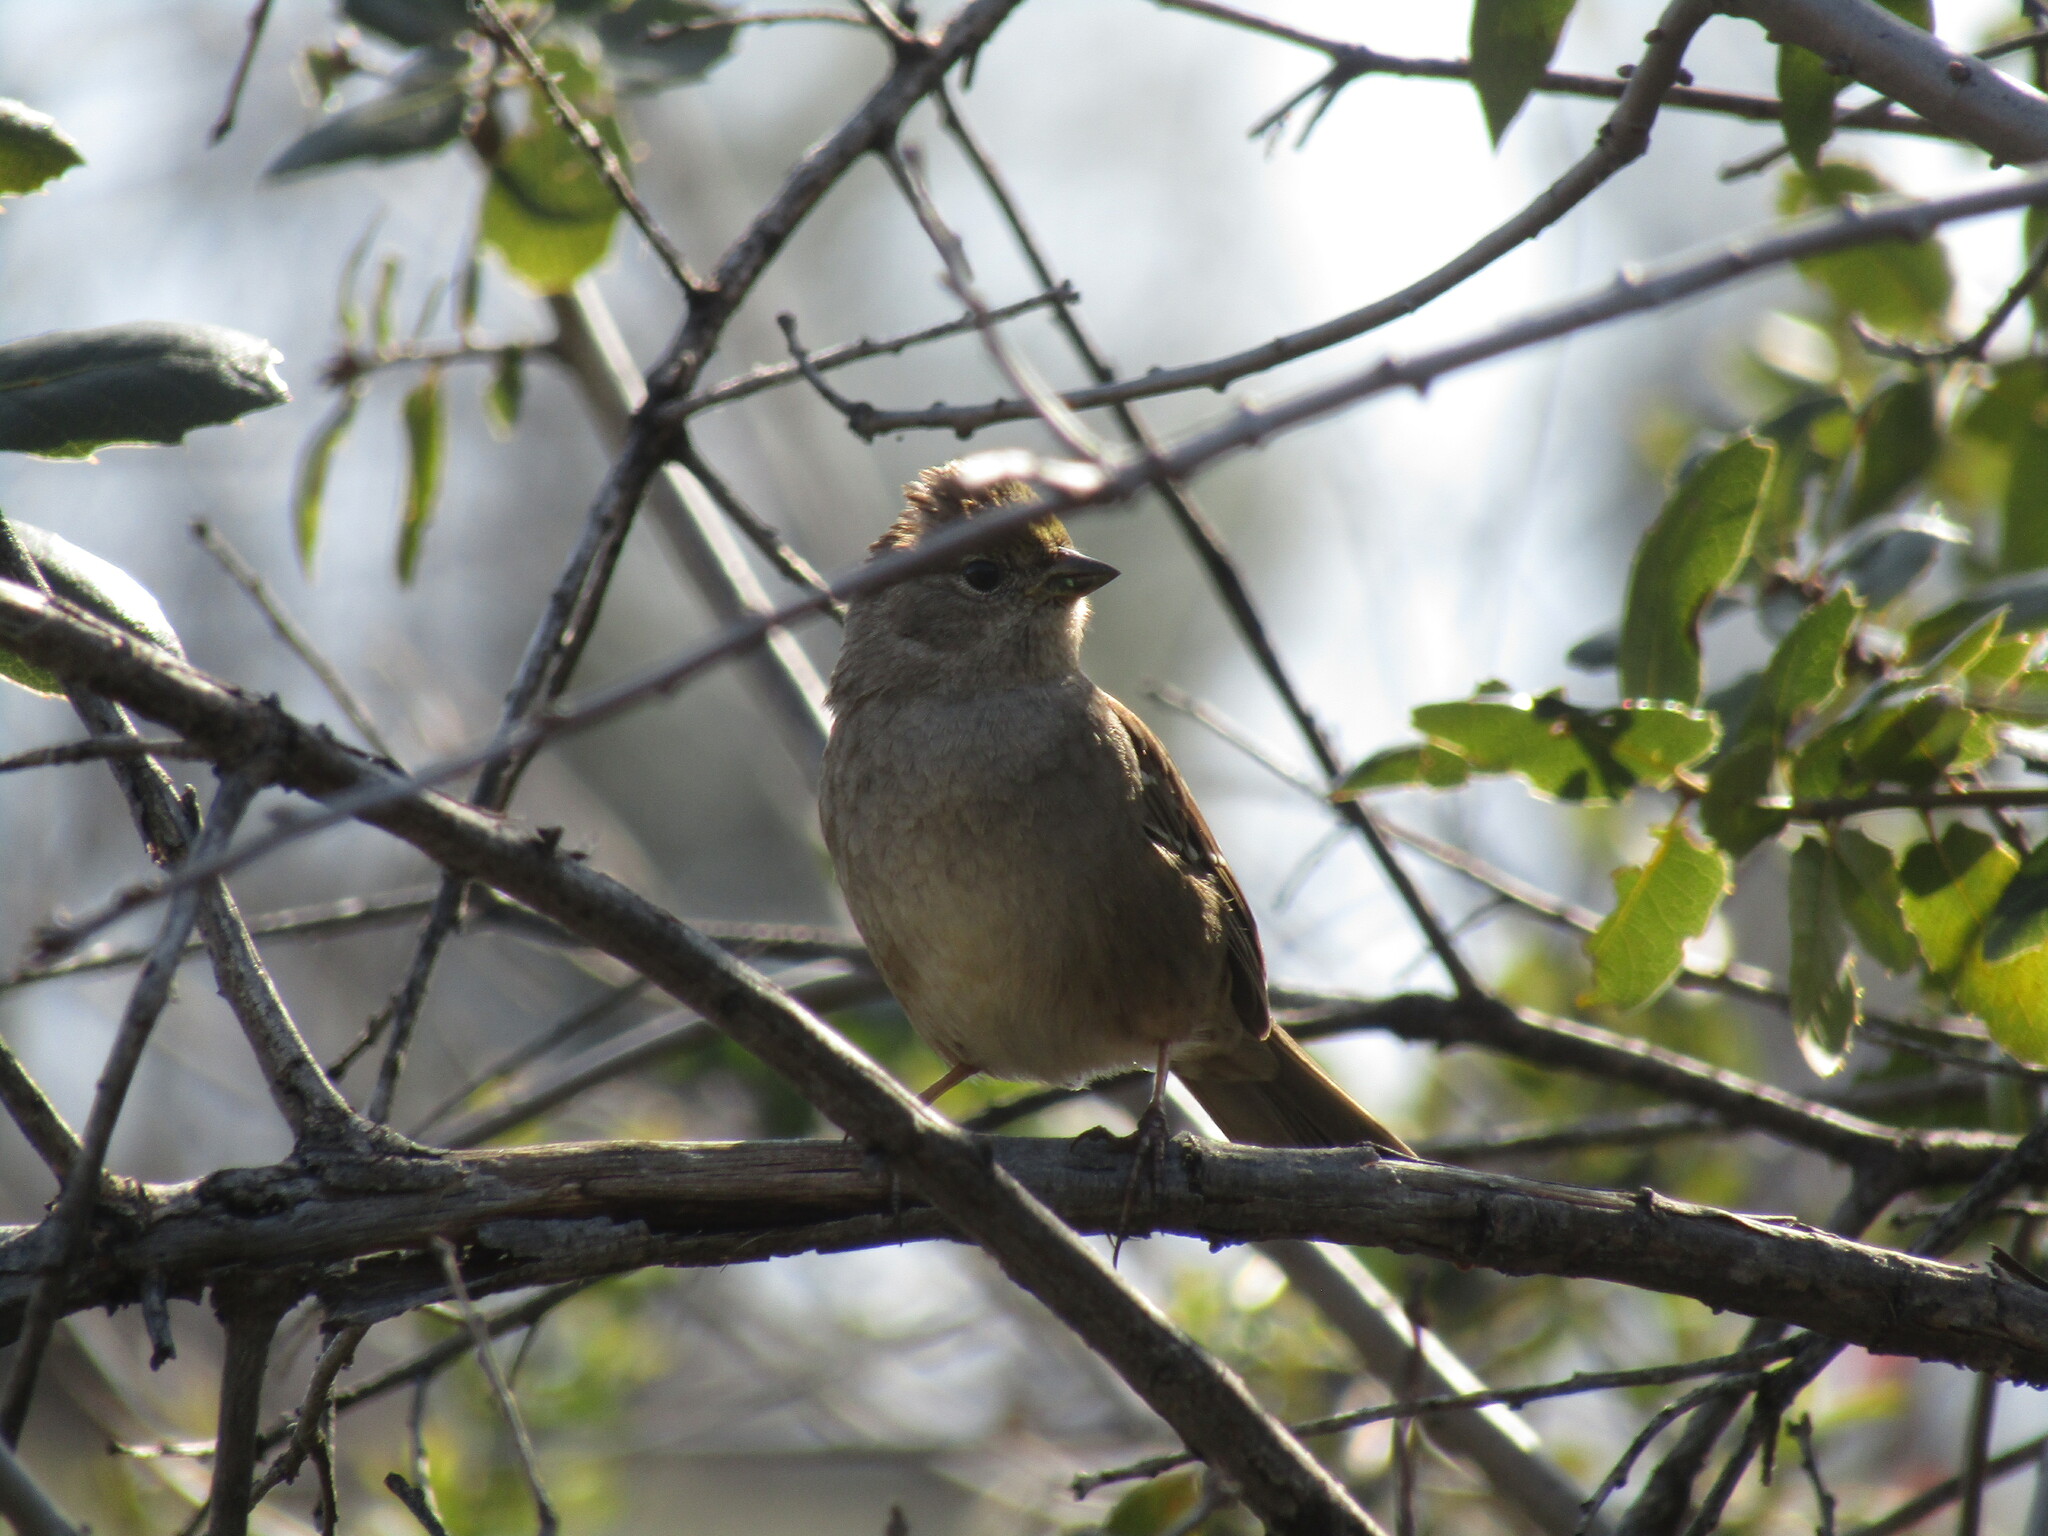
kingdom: Animalia
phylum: Chordata
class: Aves
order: Passeriformes
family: Passerellidae
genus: Zonotrichia
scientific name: Zonotrichia atricapilla
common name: Golden-crowned sparrow
